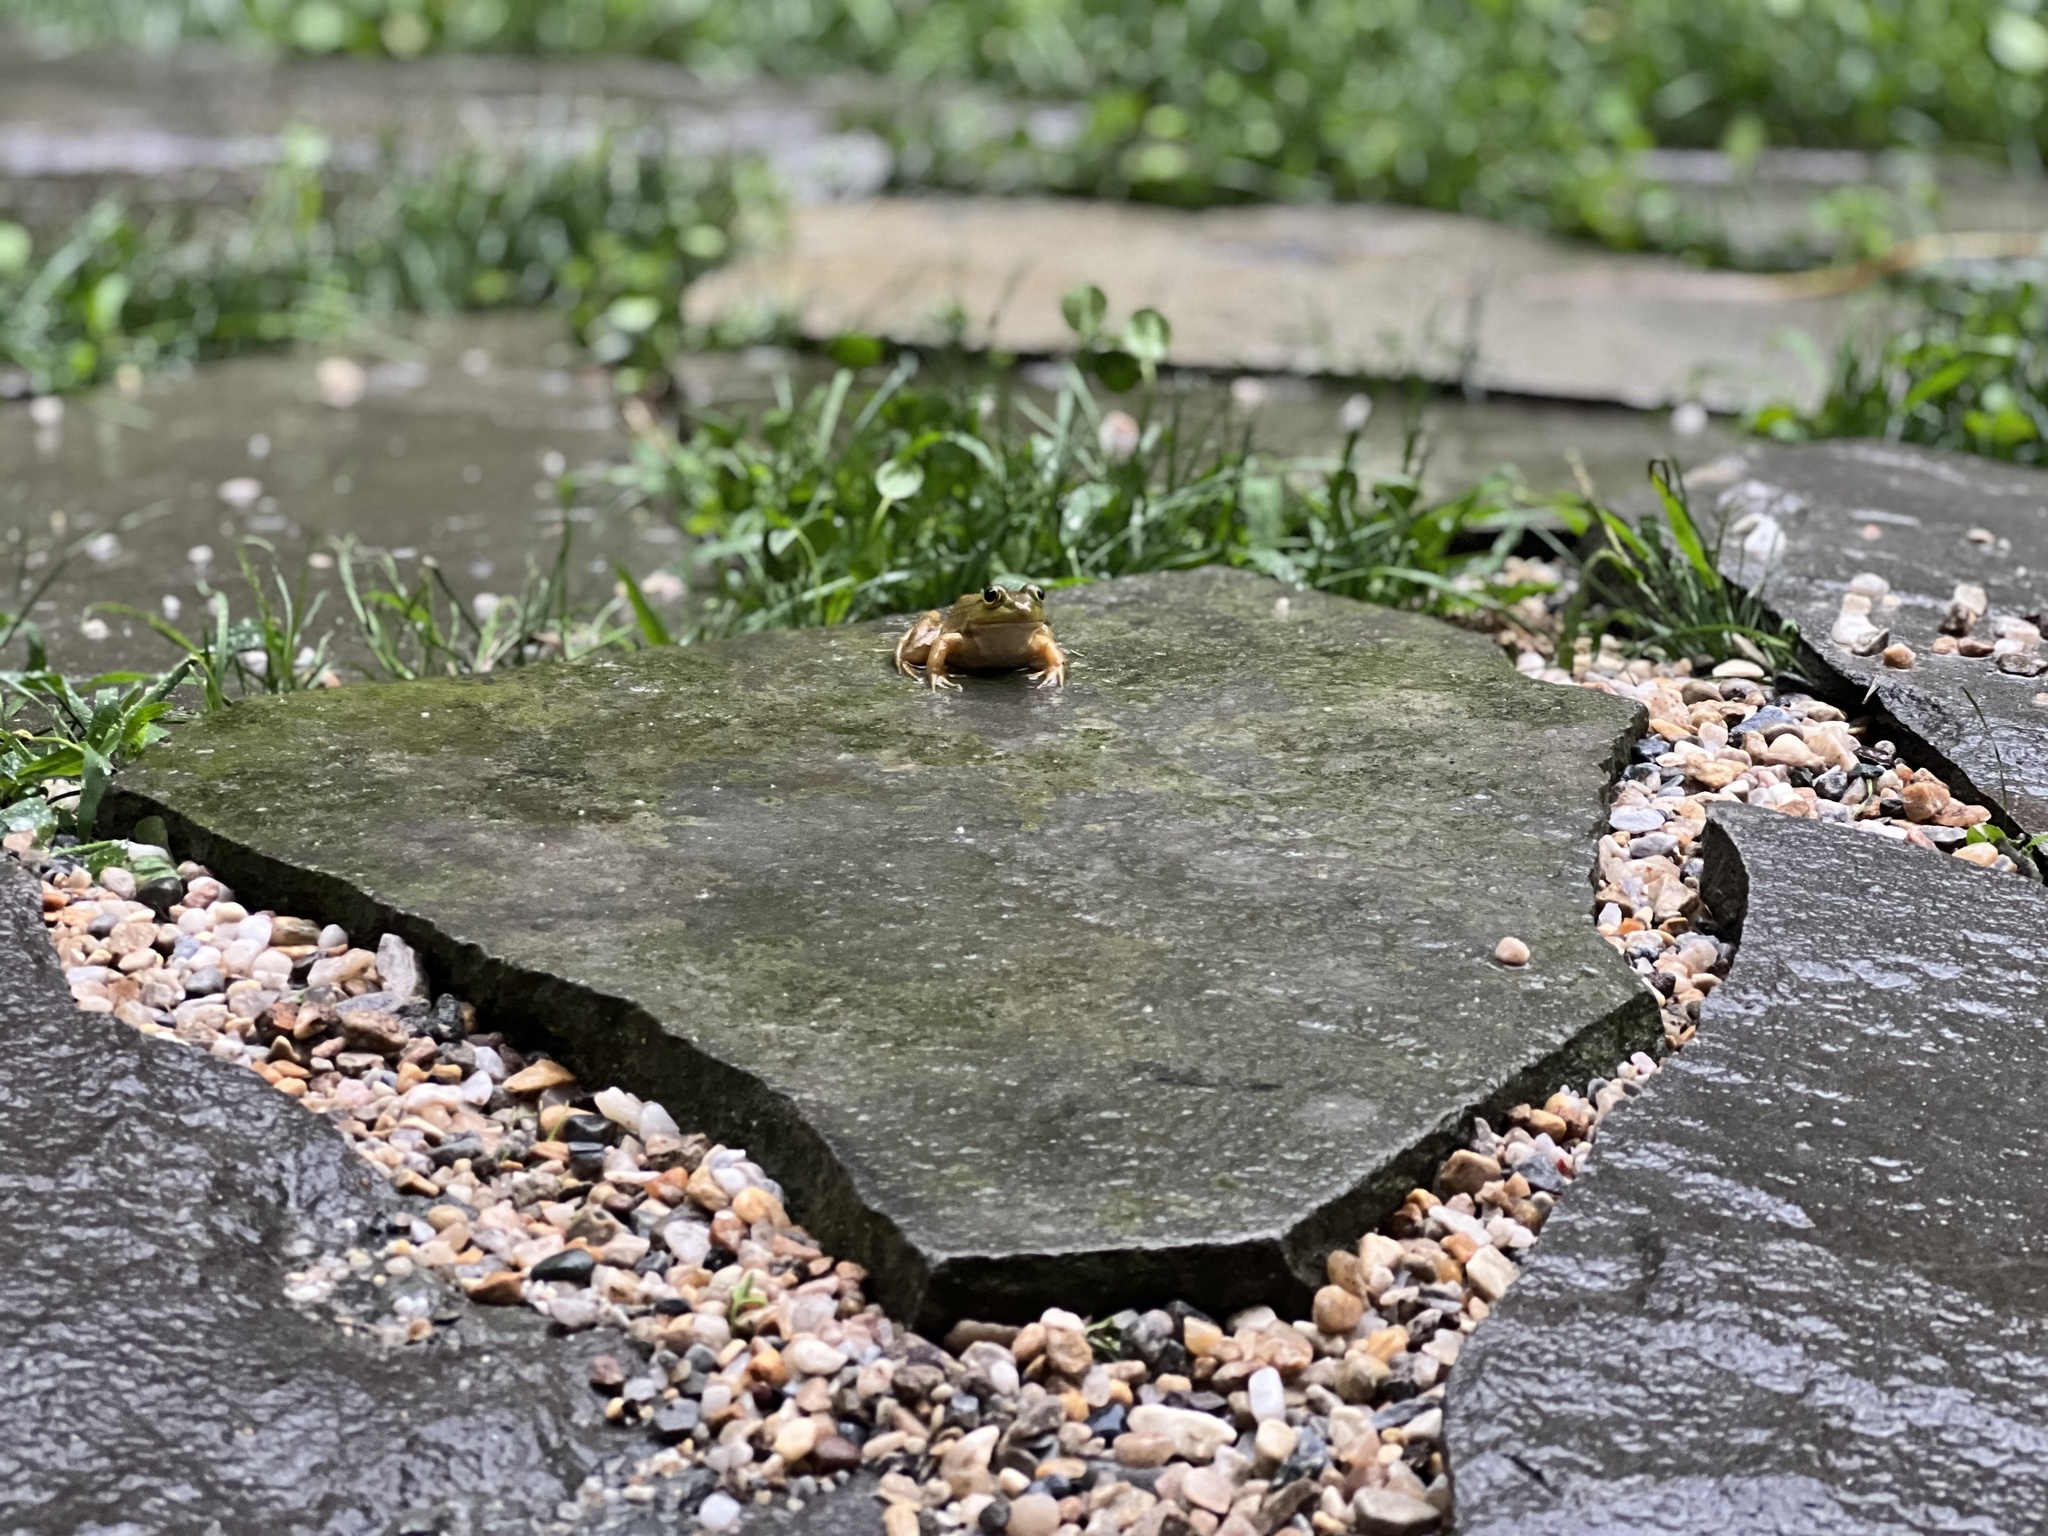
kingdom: Animalia
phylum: Chordata
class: Amphibia
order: Anura
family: Ranidae
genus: Lithobates
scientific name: Lithobates clamitans
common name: Green frog
